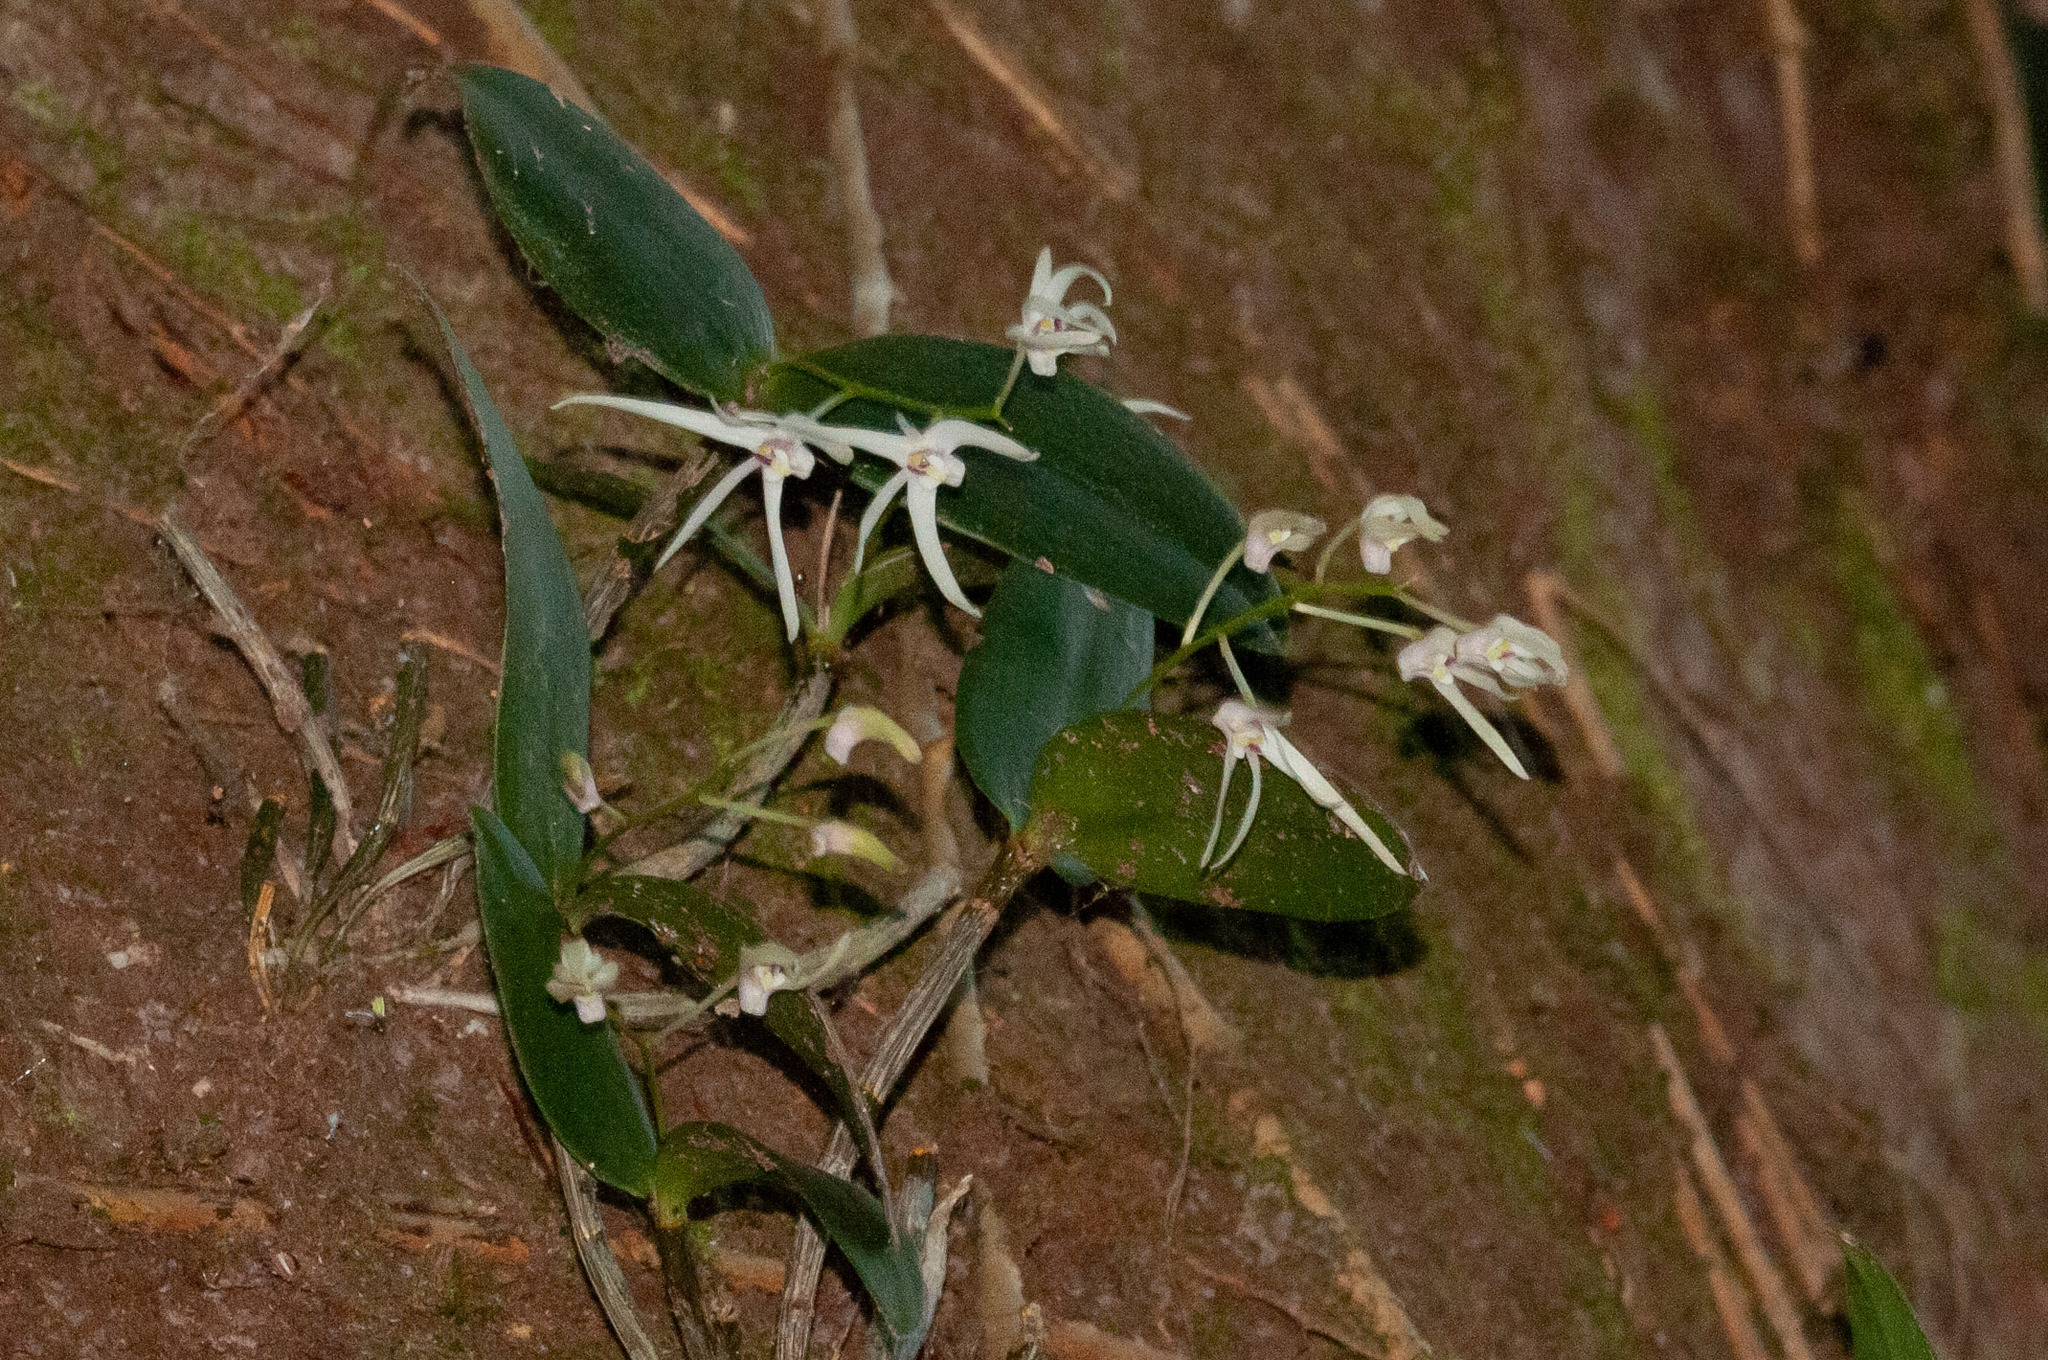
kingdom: Plantae
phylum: Tracheophyta
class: Liliopsida
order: Asparagales
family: Orchidaceae
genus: Dendrobium
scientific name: Dendrobium aemulum
